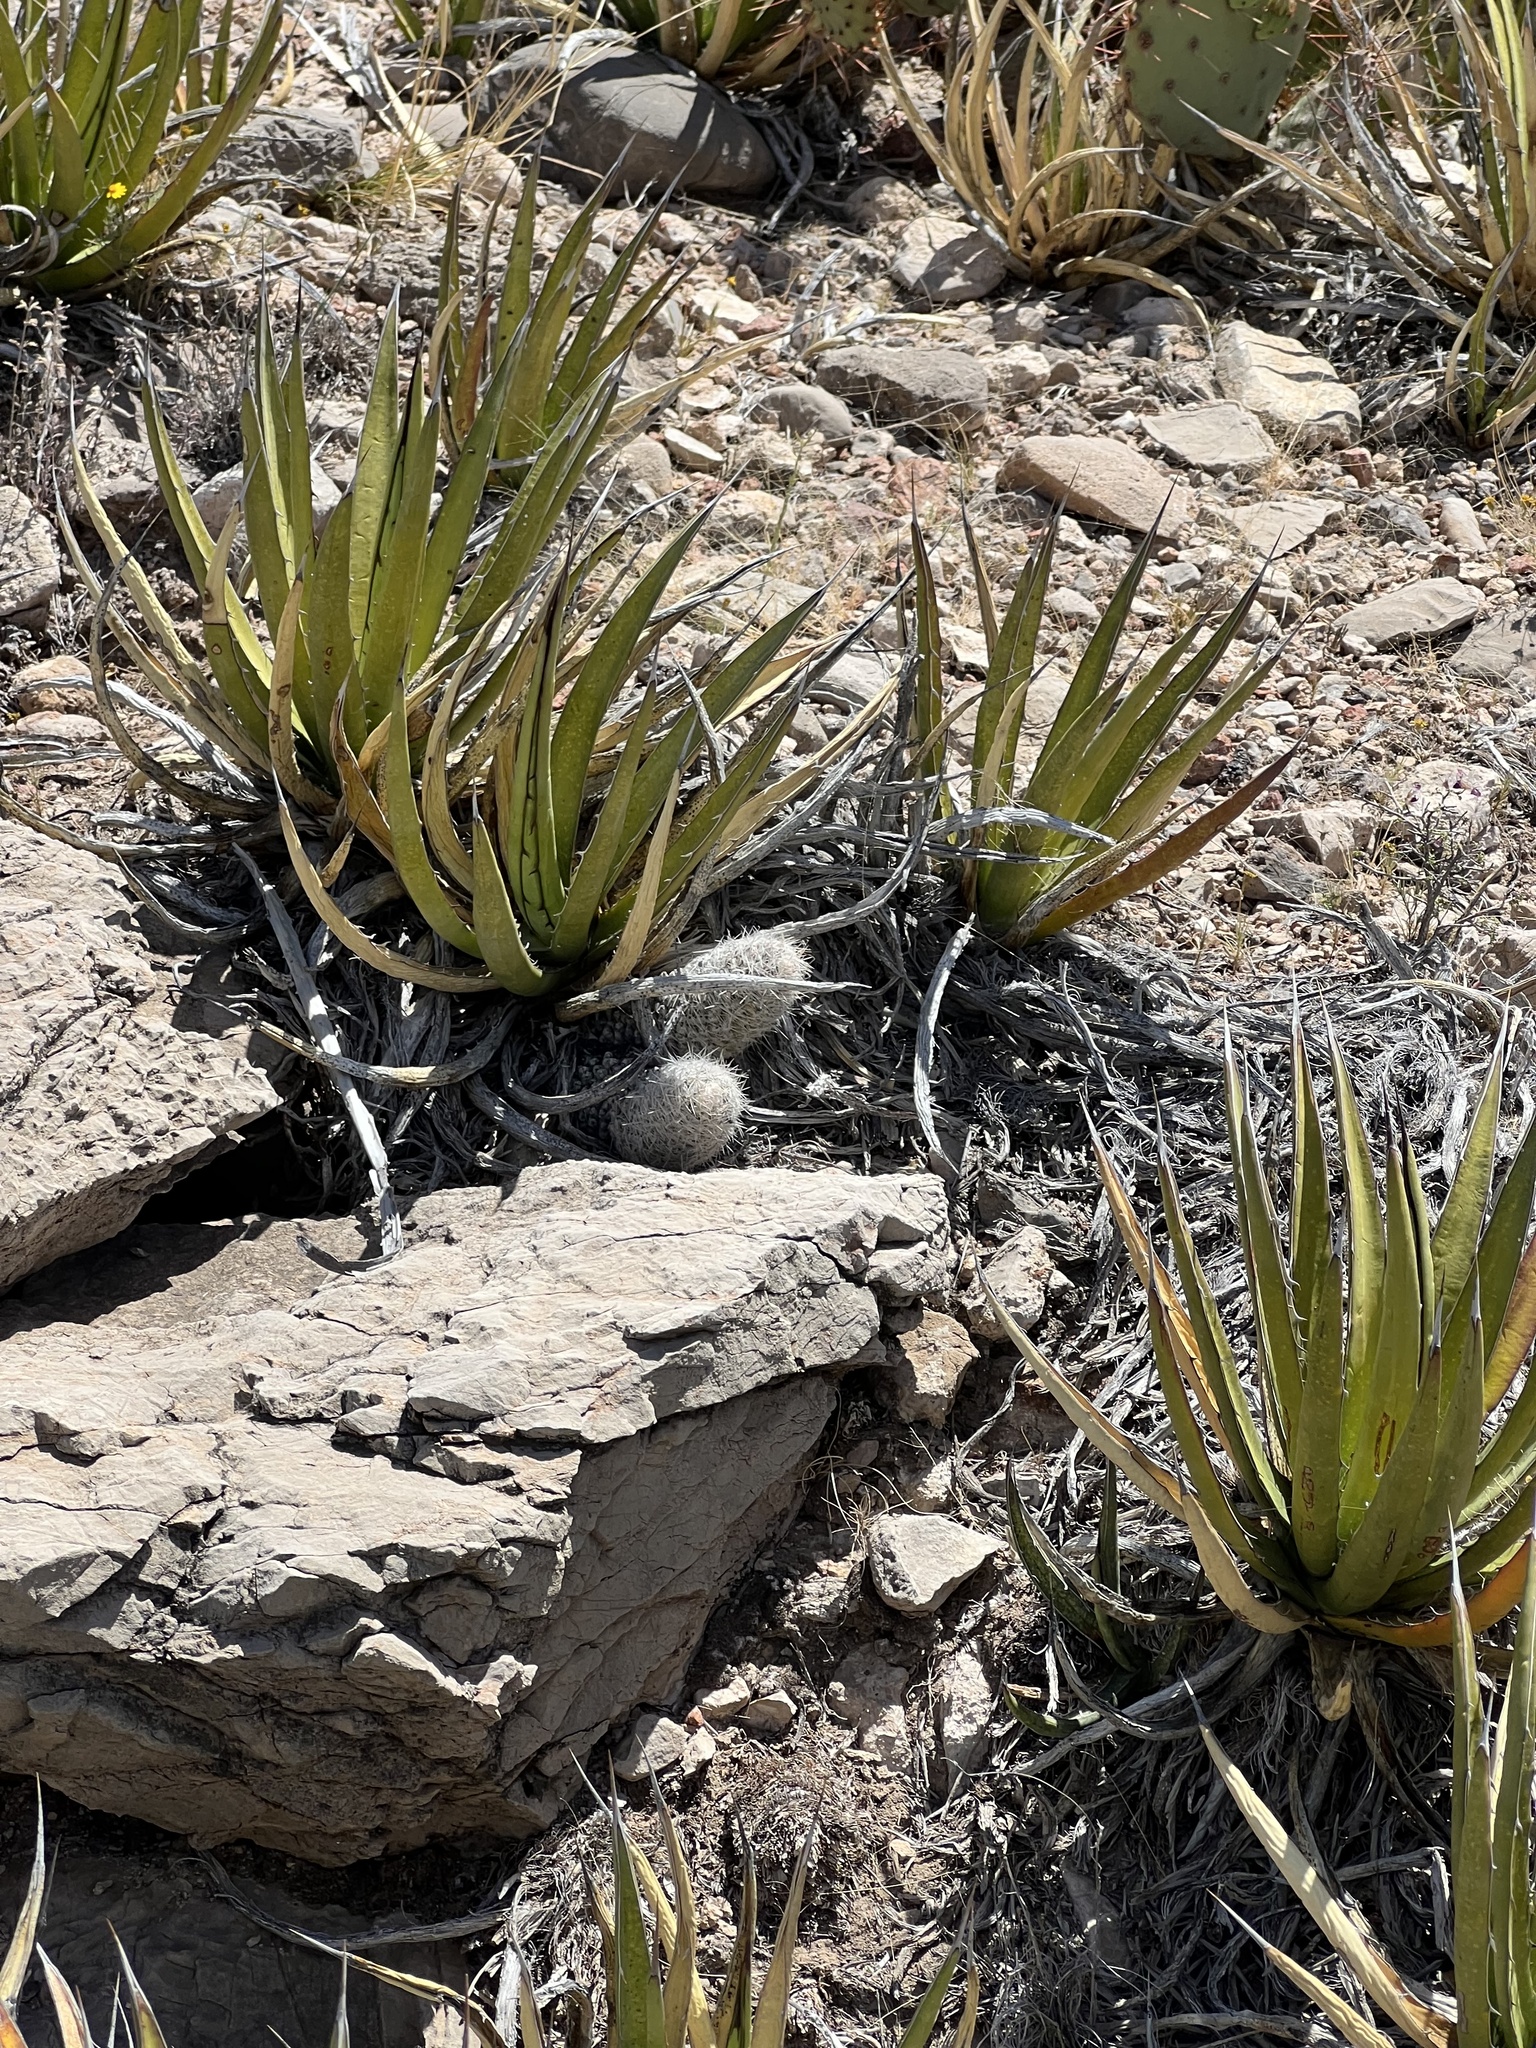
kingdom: Plantae
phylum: Tracheophyta
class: Liliopsida
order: Asparagales
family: Asparagaceae
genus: Agave
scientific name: Agave lechuguilla
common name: Lecheguilla agave
